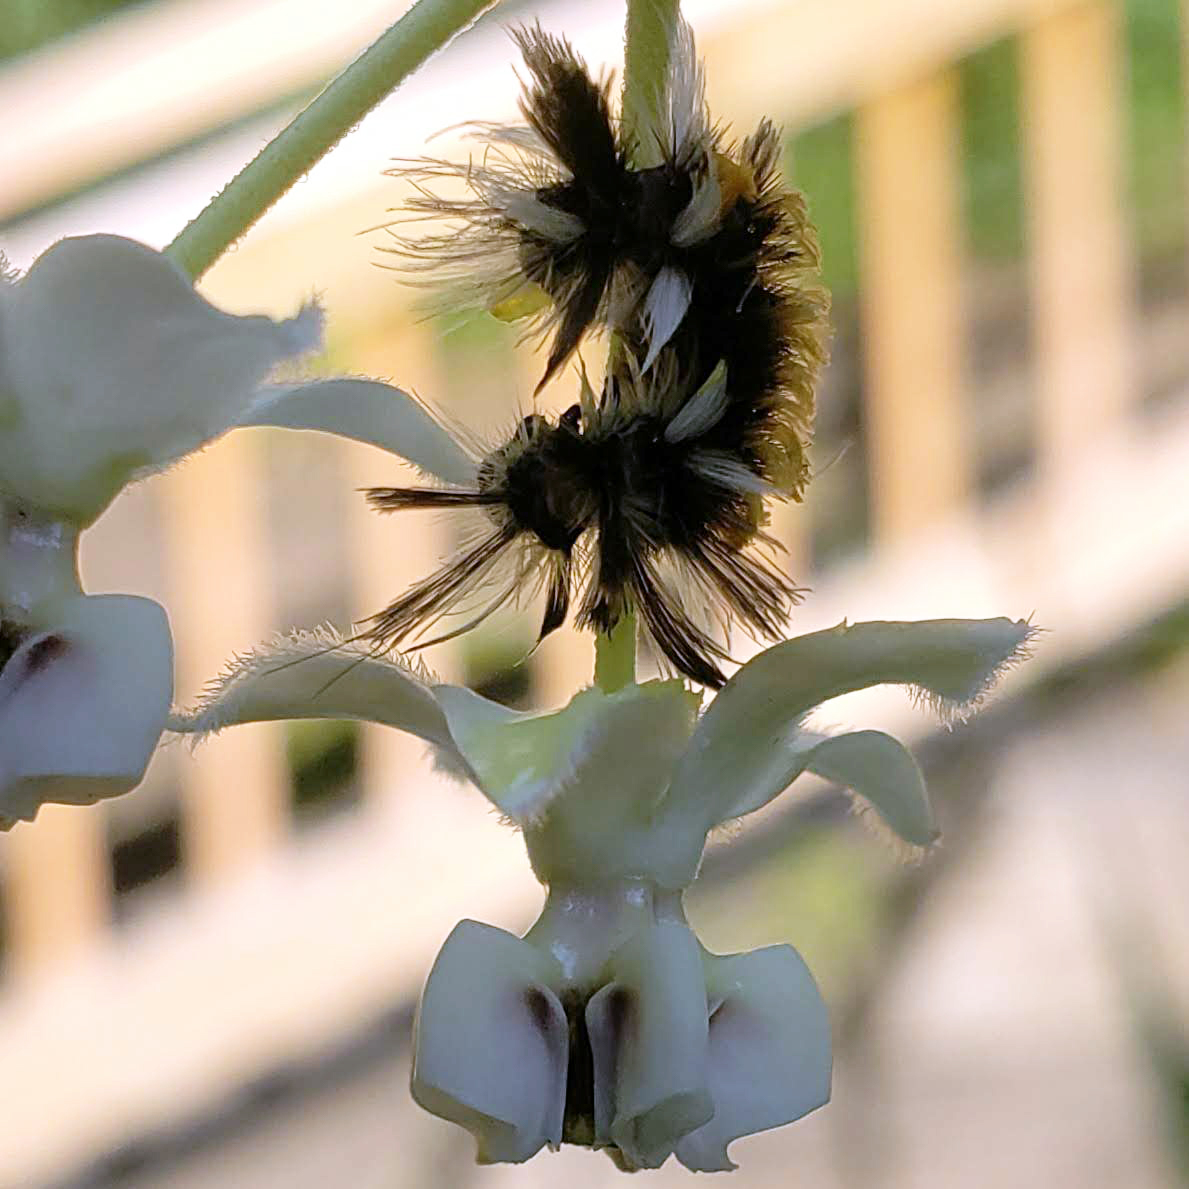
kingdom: Animalia
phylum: Arthropoda
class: Insecta
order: Lepidoptera
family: Erebidae
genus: Euchaetes
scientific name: Euchaetes egle
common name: Milkweed tussock moth
